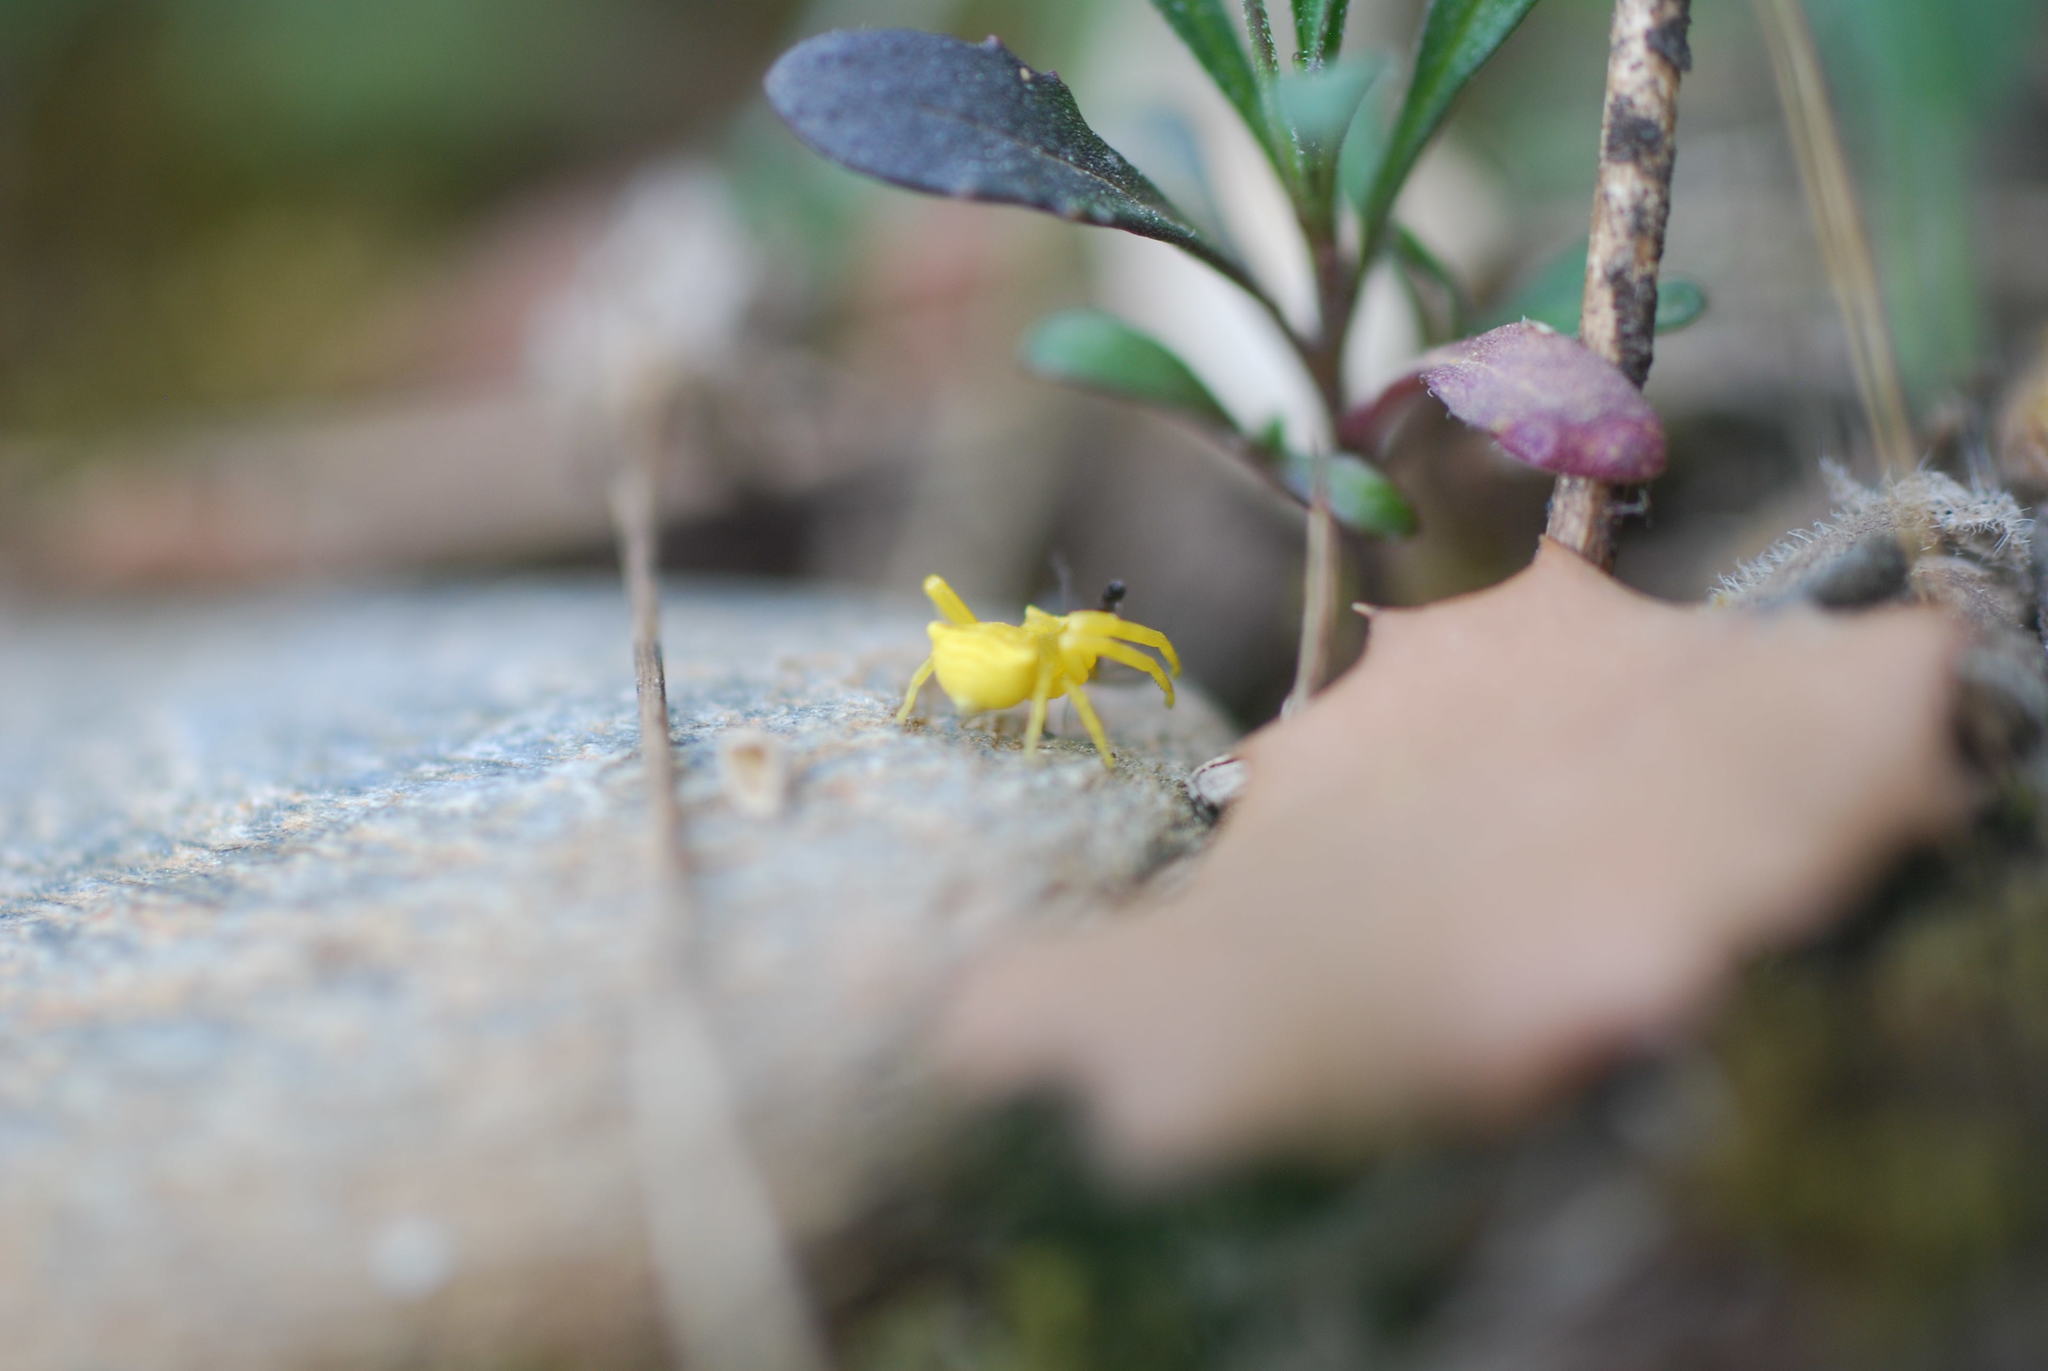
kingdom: Animalia
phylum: Arthropoda
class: Arachnida
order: Araneae
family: Thomisidae
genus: Thomisus
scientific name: Thomisus onustus
